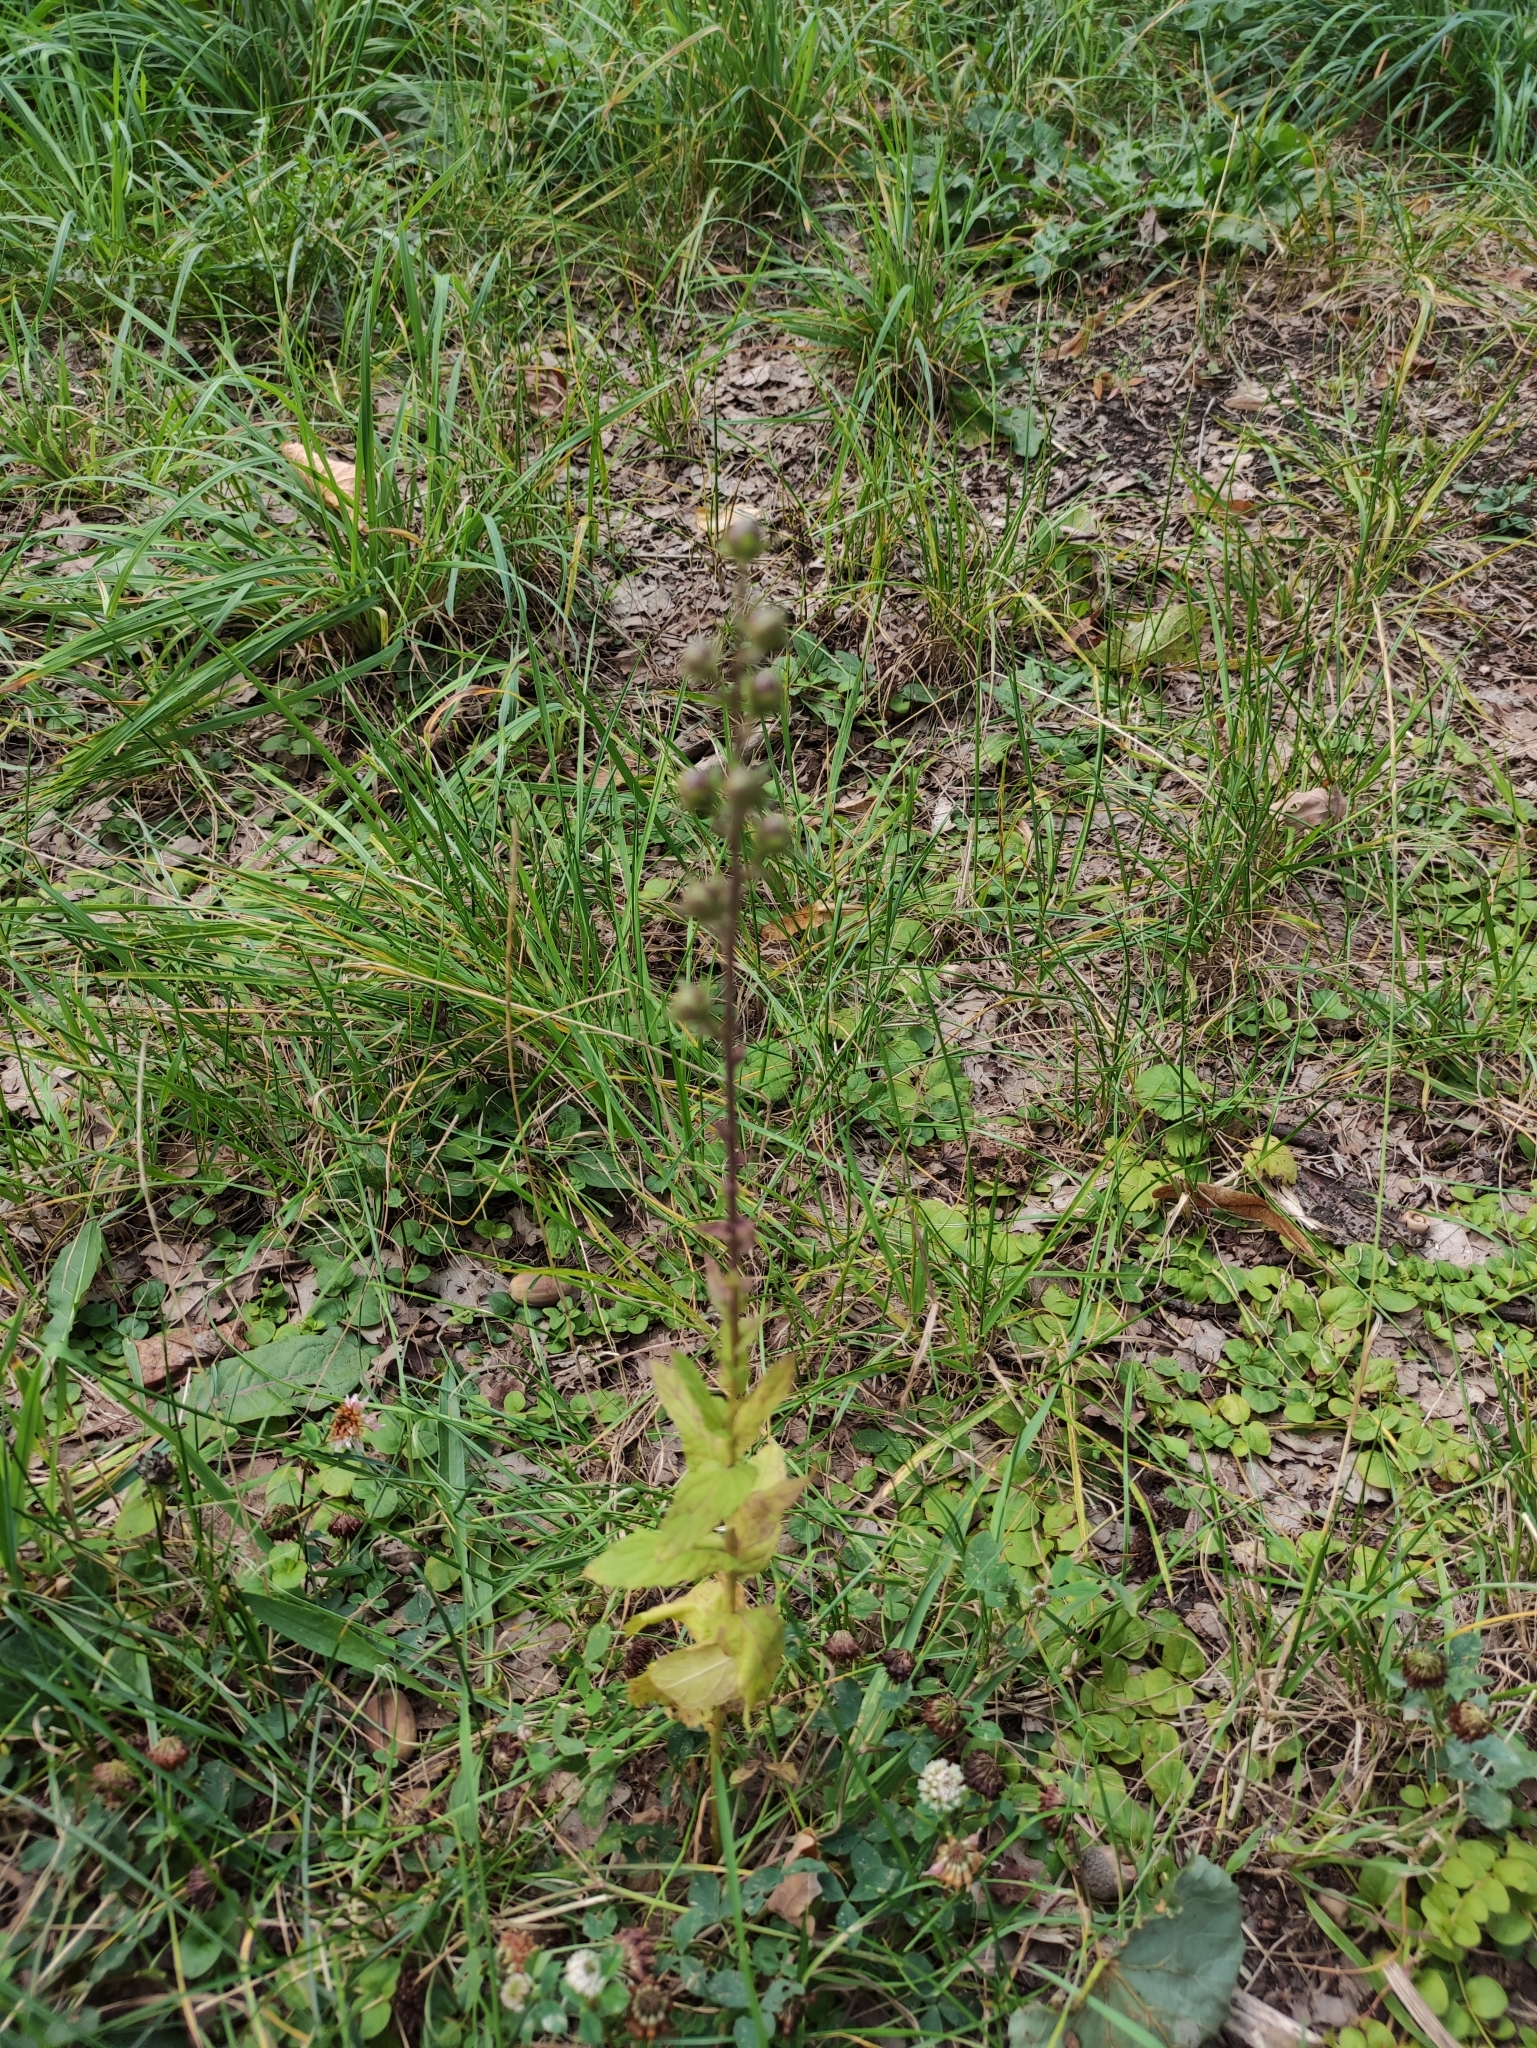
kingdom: Plantae
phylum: Tracheophyta
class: Magnoliopsida
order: Lamiales
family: Scrophulariaceae
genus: Verbascum
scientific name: Verbascum blattaria
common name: Moth mullein
